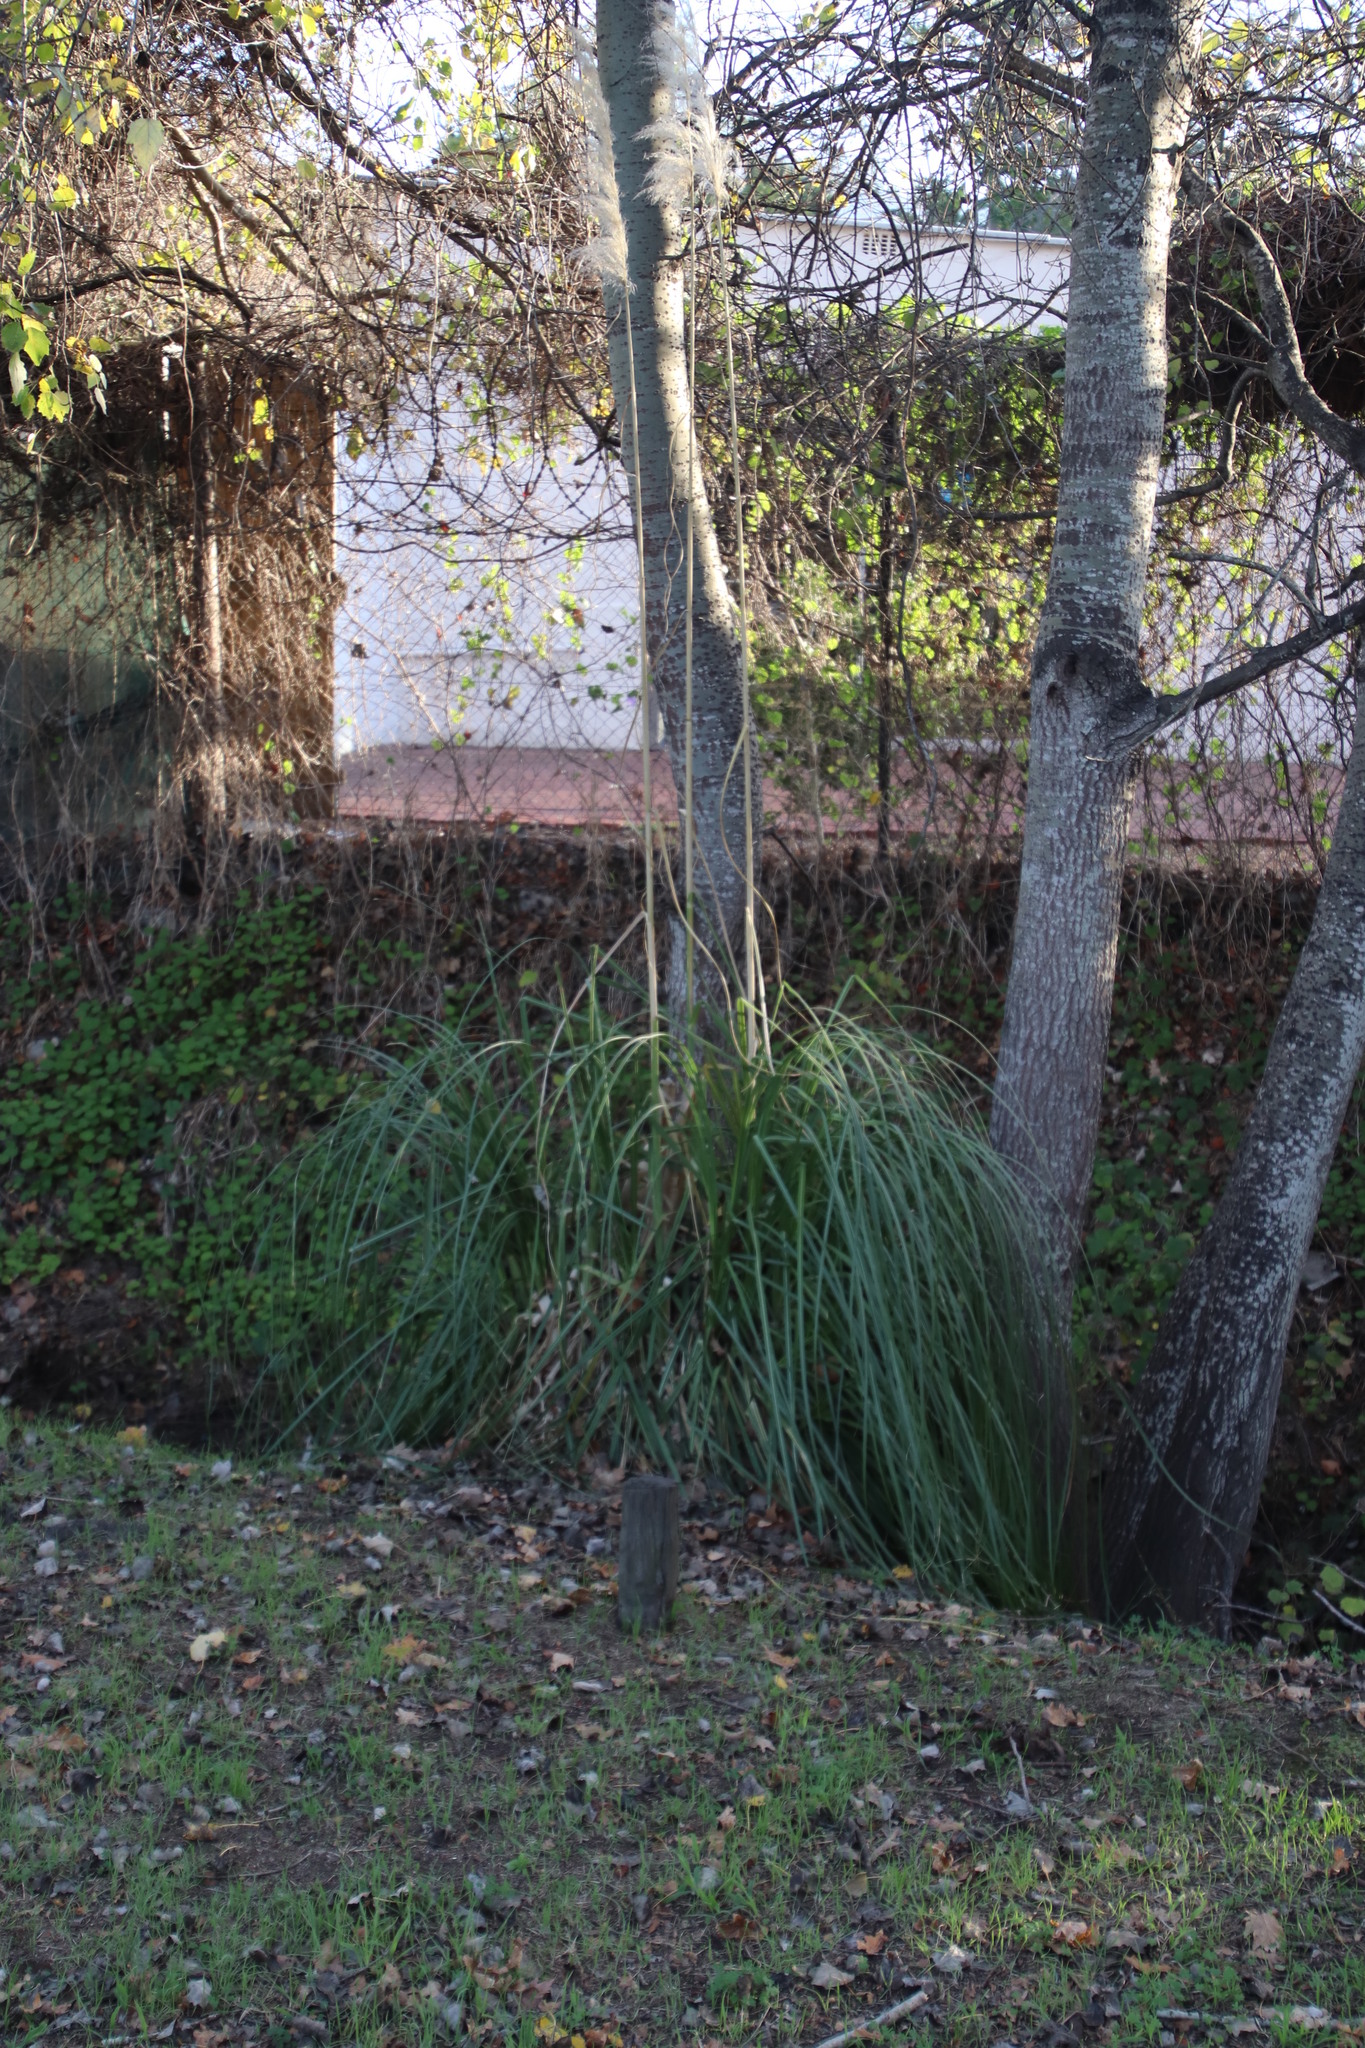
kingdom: Plantae
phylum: Tracheophyta
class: Liliopsida
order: Poales
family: Poaceae
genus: Cortaderia
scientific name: Cortaderia selloana
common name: Uruguayan pampas grass
